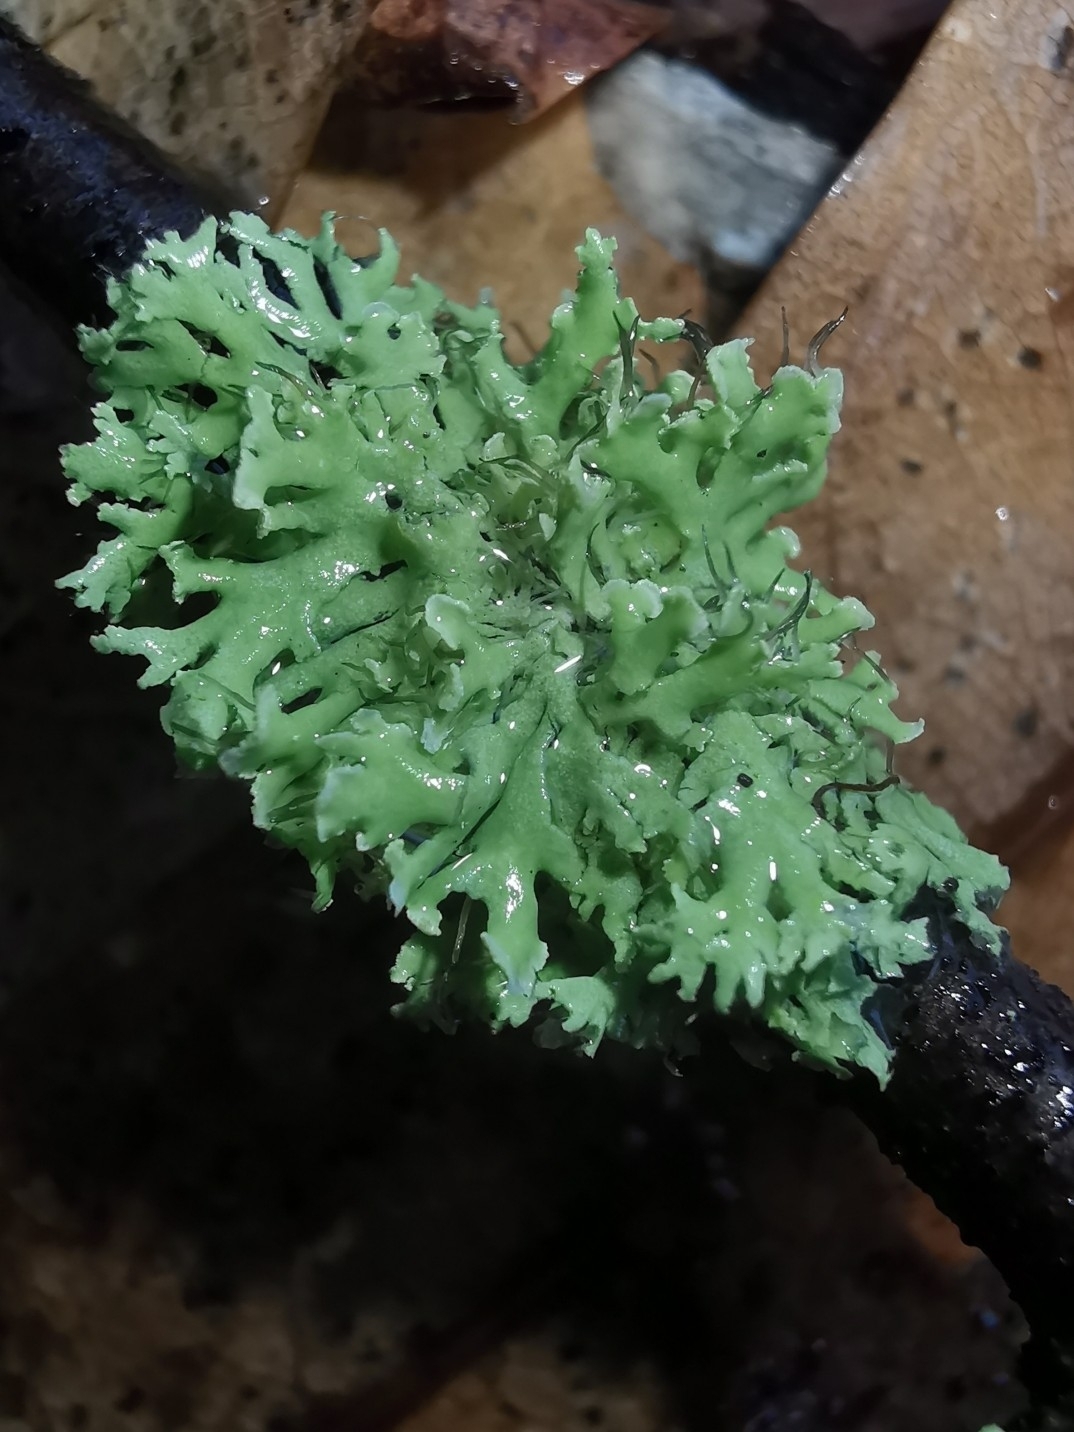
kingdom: Fungi
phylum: Ascomycota
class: Lecanoromycetes
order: Caliciales
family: Physciaceae
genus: Physcia
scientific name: Physcia tenella
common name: Fringed rosette lichen
